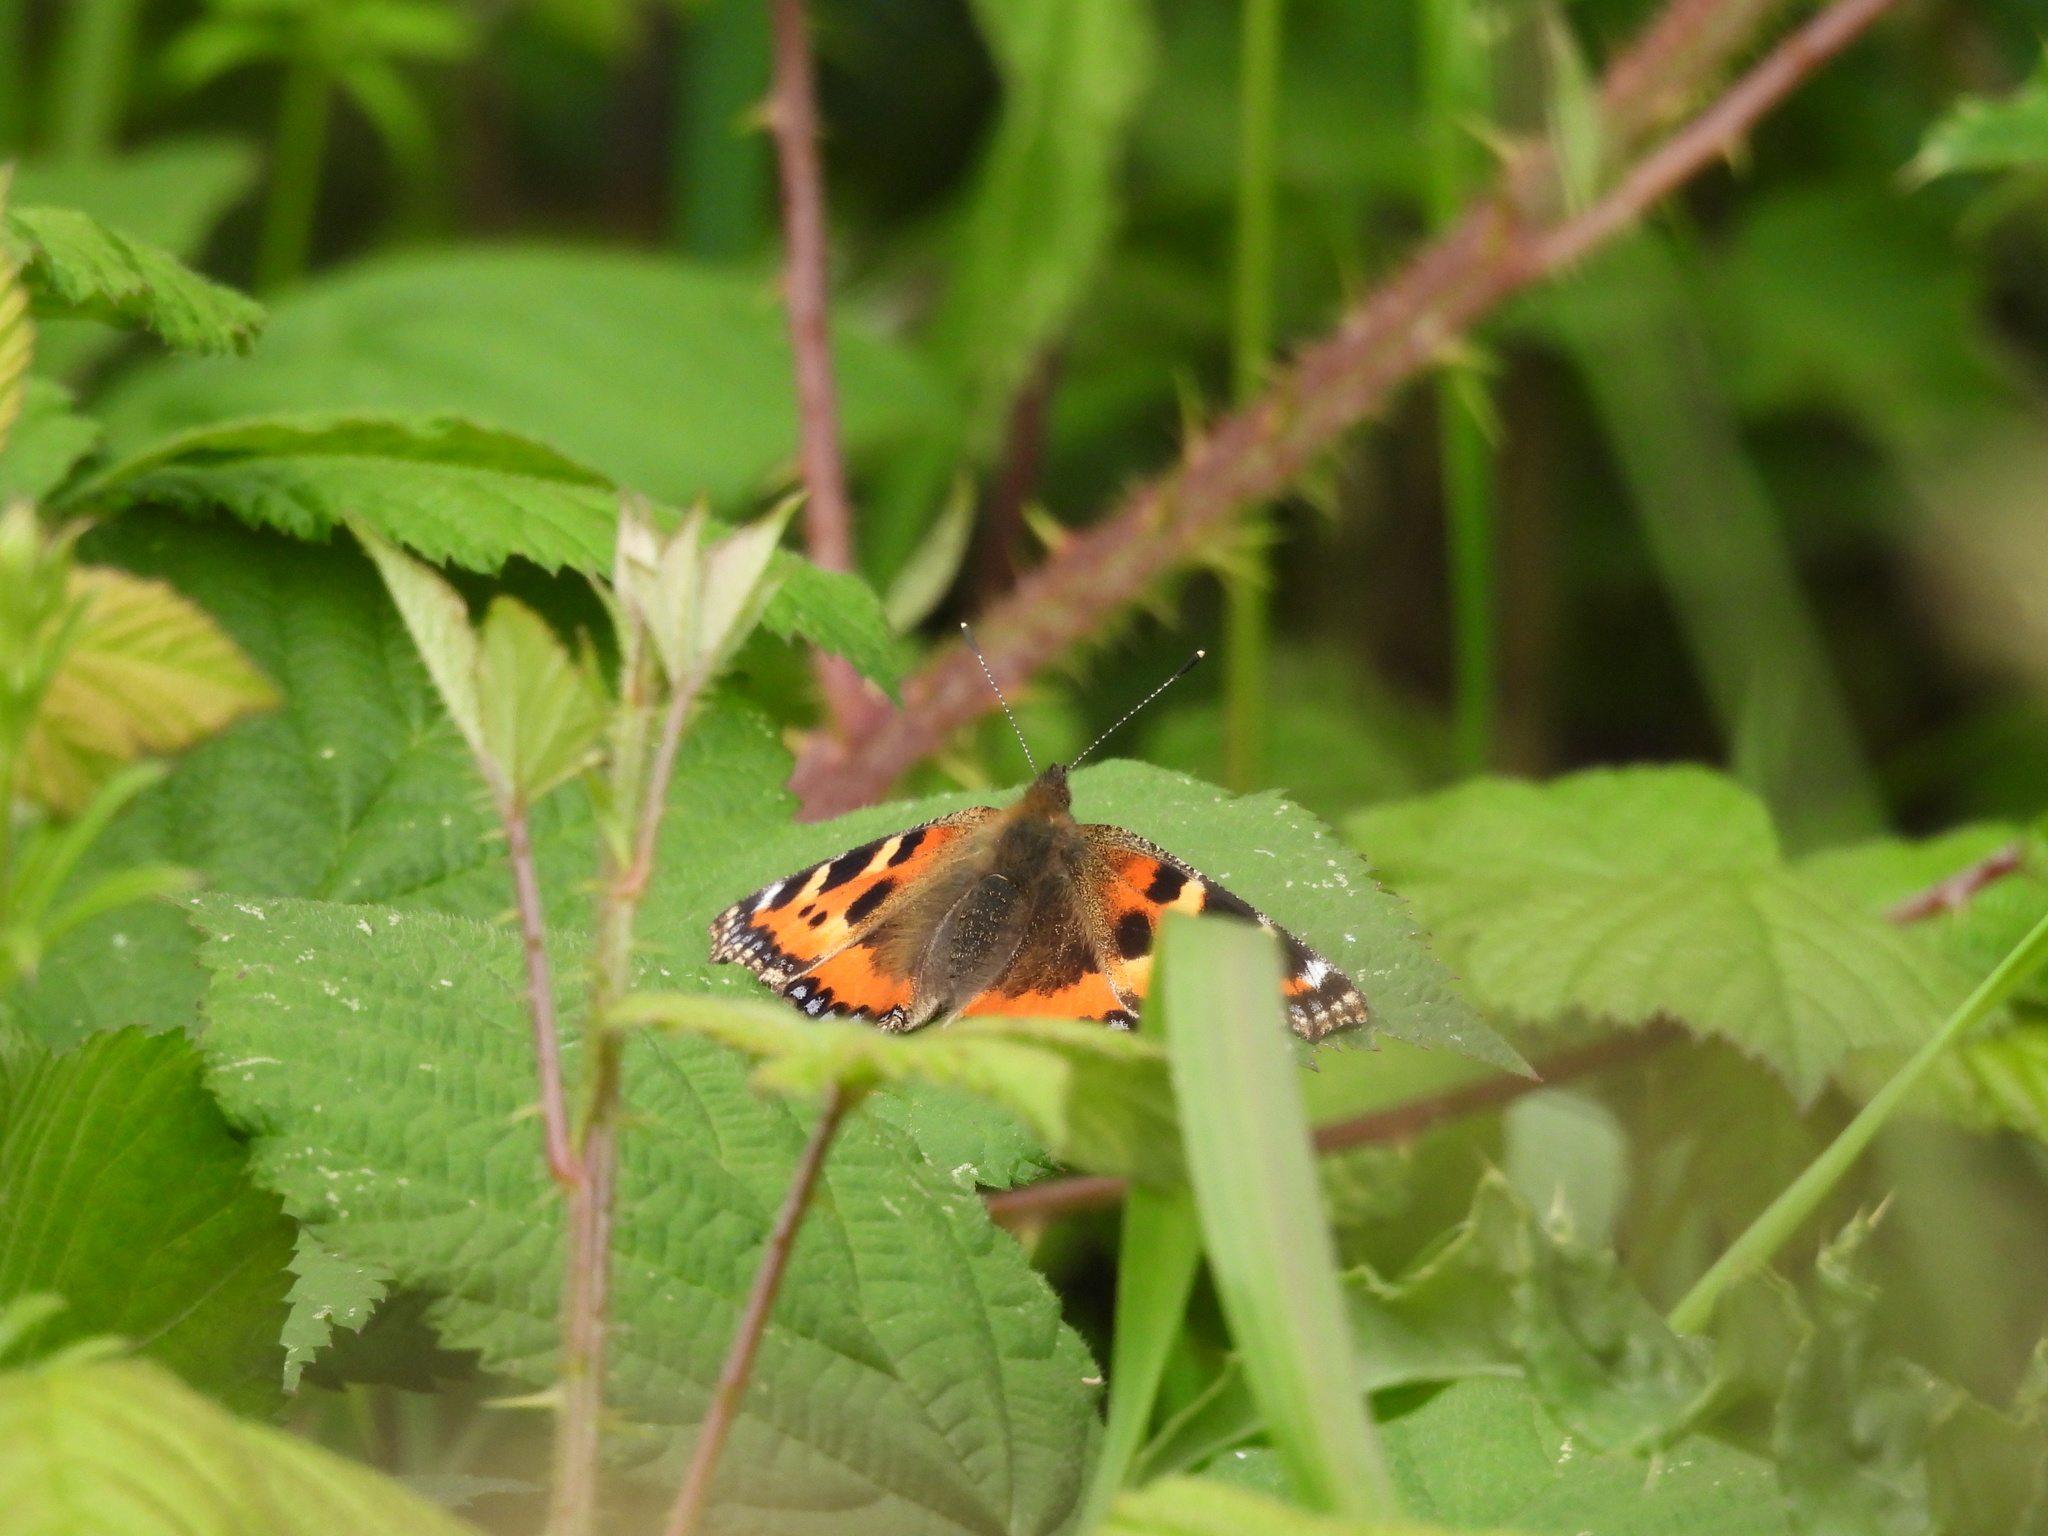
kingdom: Animalia
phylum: Arthropoda
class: Insecta
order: Lepidoptera
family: Nymphalidae
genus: Aglais
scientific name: Aglais urticae
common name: Small tortoiseshell
